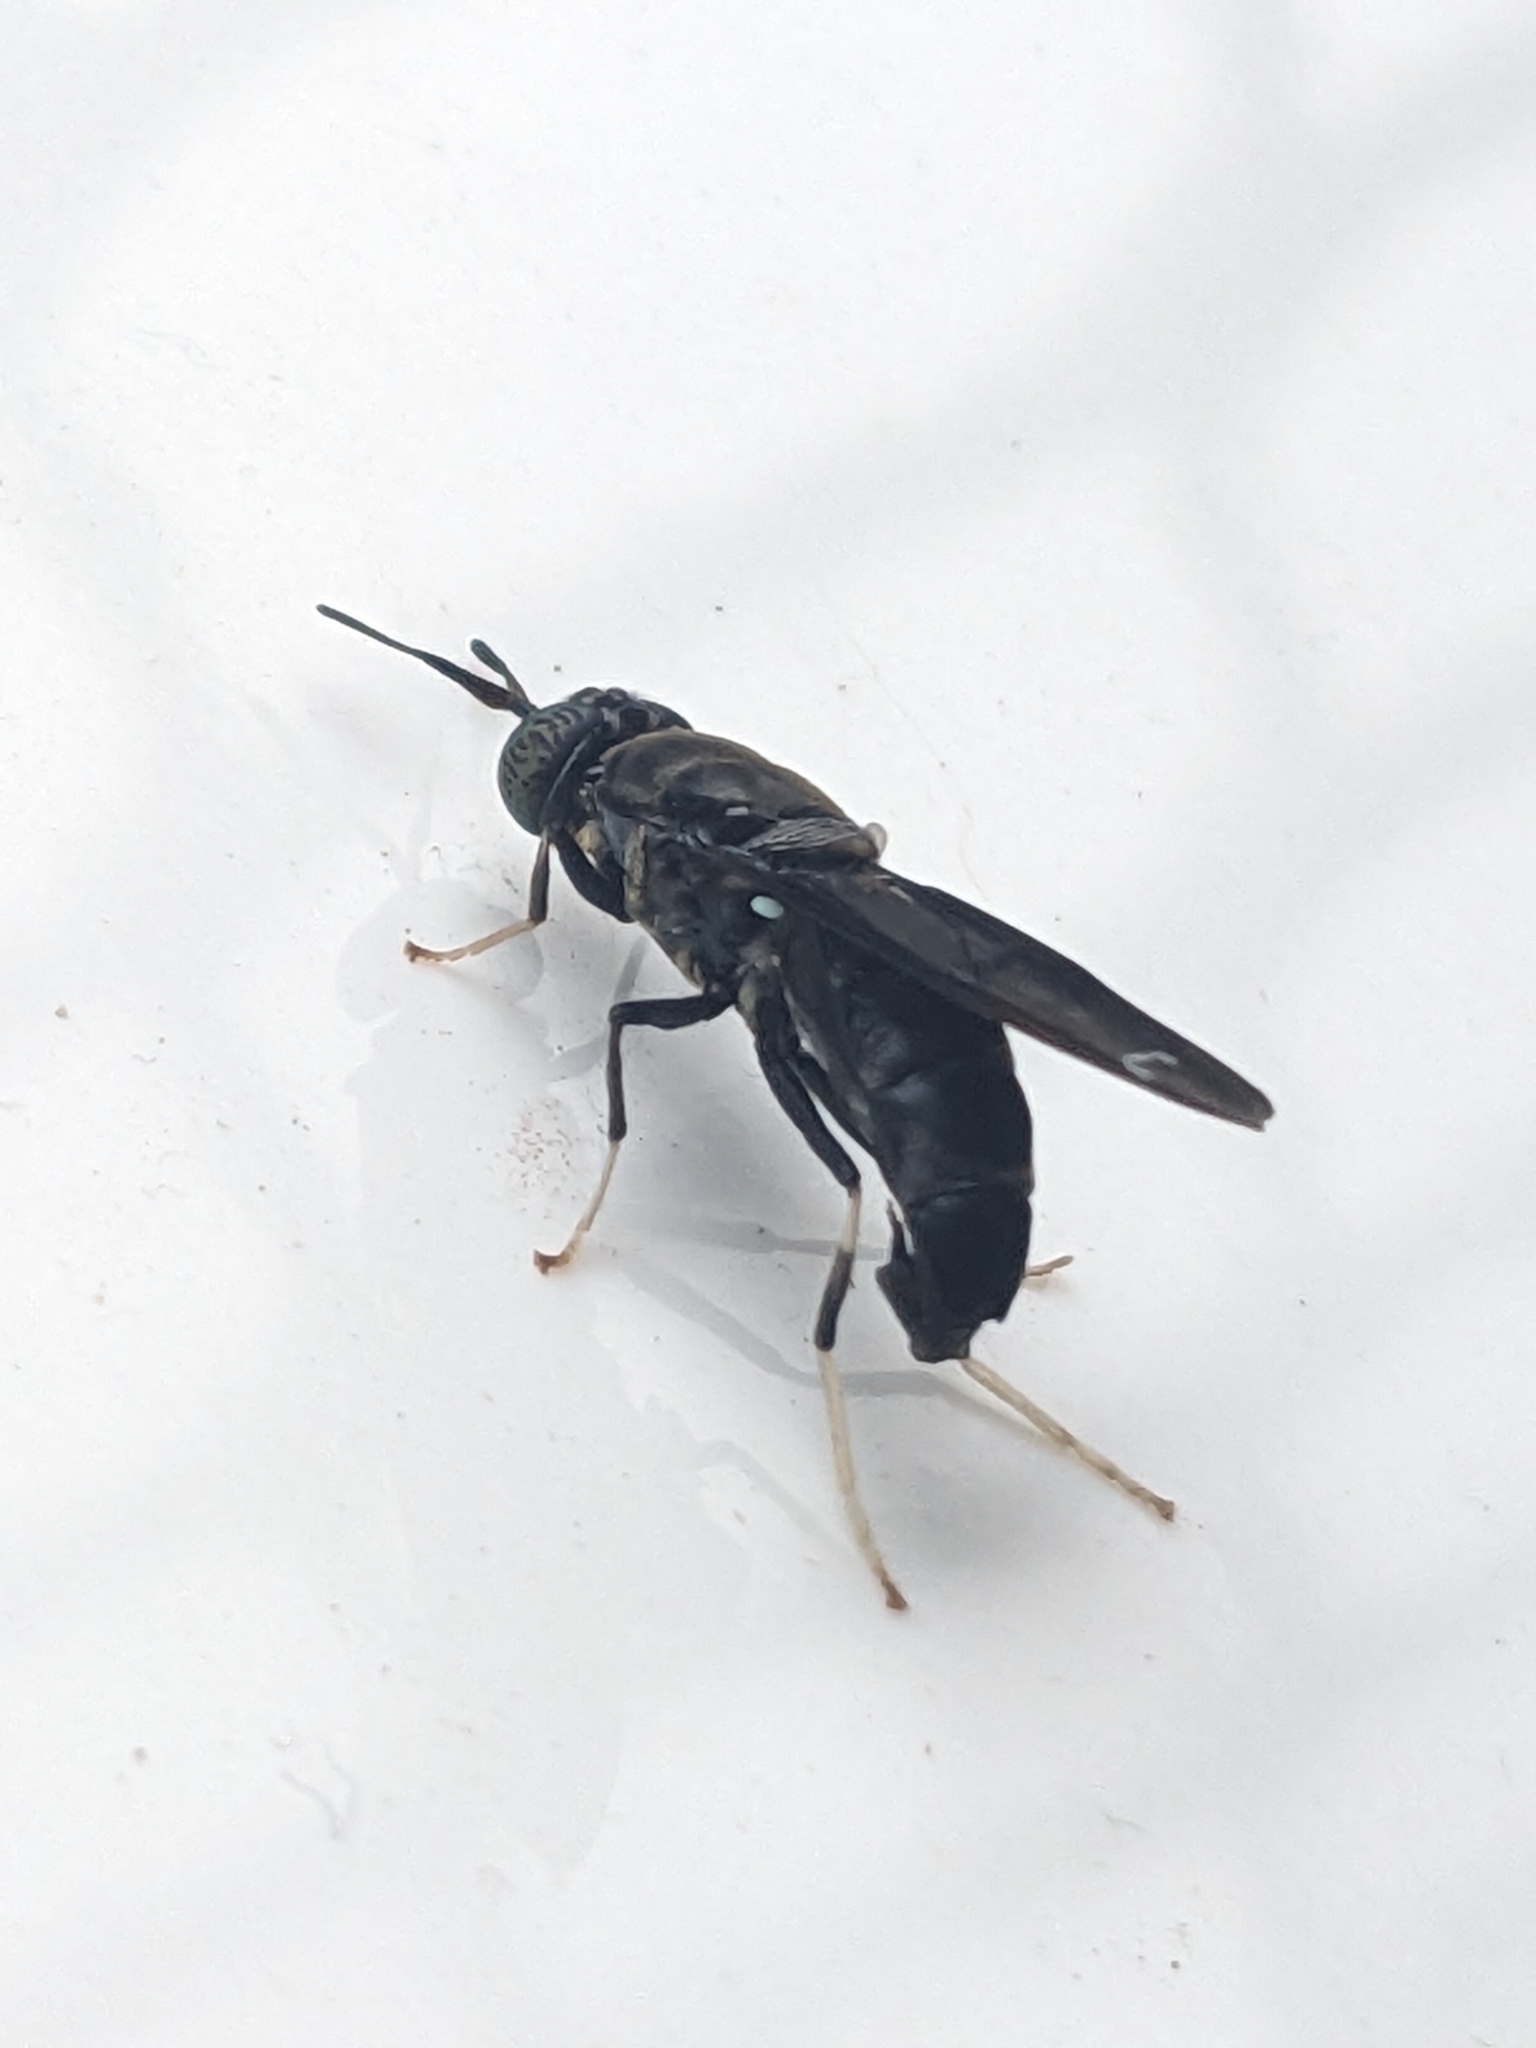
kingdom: Animalia
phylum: Arthropoda
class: Insecta
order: Diptera
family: Stratiomyidae
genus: Hermetia
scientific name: Hermetia illucens
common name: Black soldier fly
